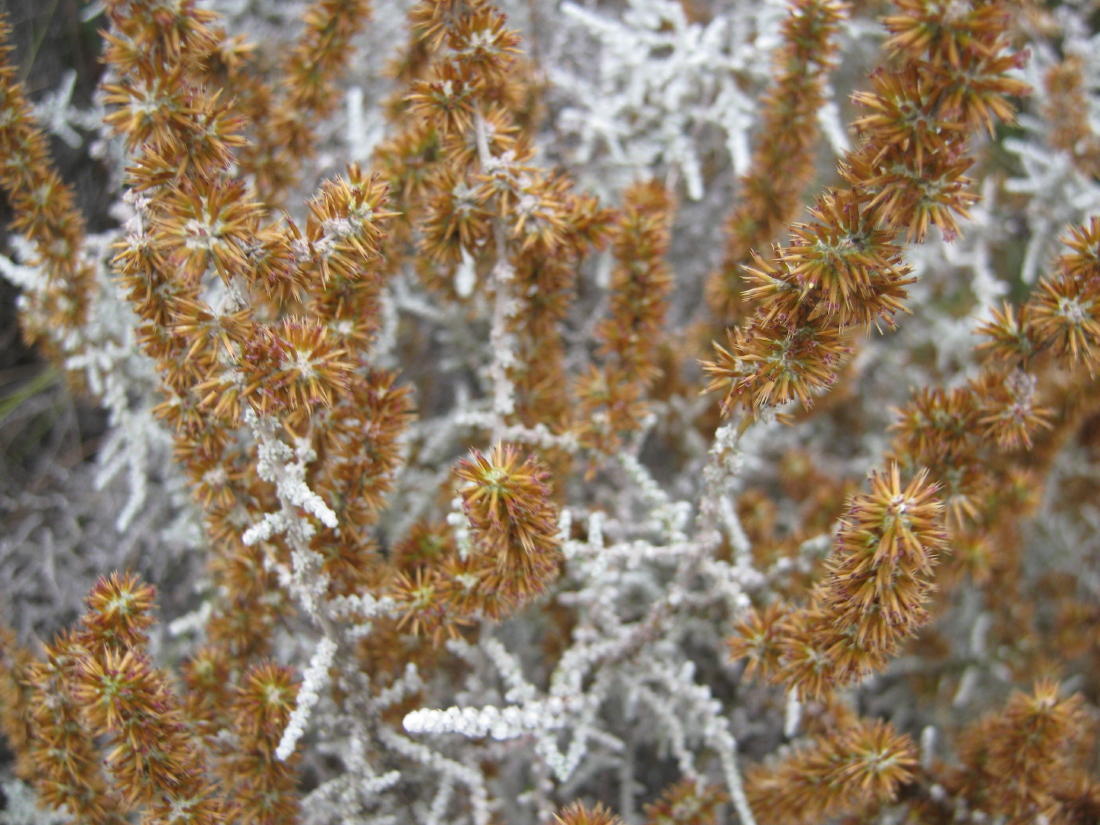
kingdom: Plantae
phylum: Tracheophyta
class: Magnoliopsida
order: Asterales
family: Asteraceae
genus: Seriphium
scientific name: Seriphium plumosum
